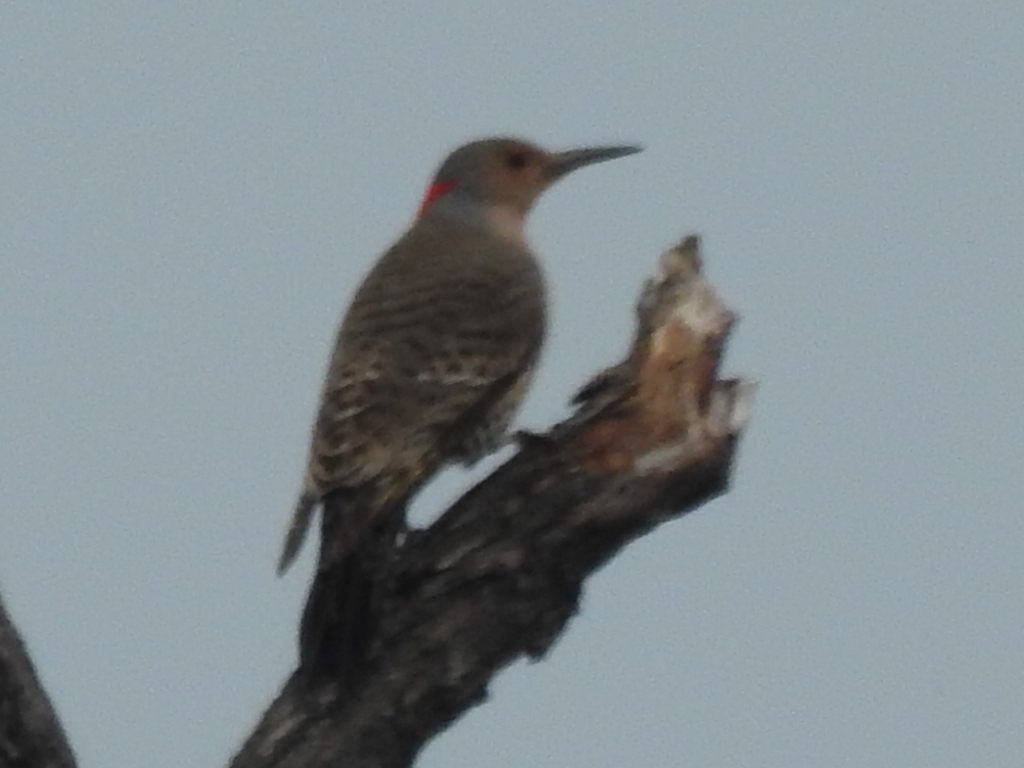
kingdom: Animalia
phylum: Chordata
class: Aves
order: Piciformes
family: Picidae
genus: Colaptes
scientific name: Colaptes auratus
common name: Northern flicker
